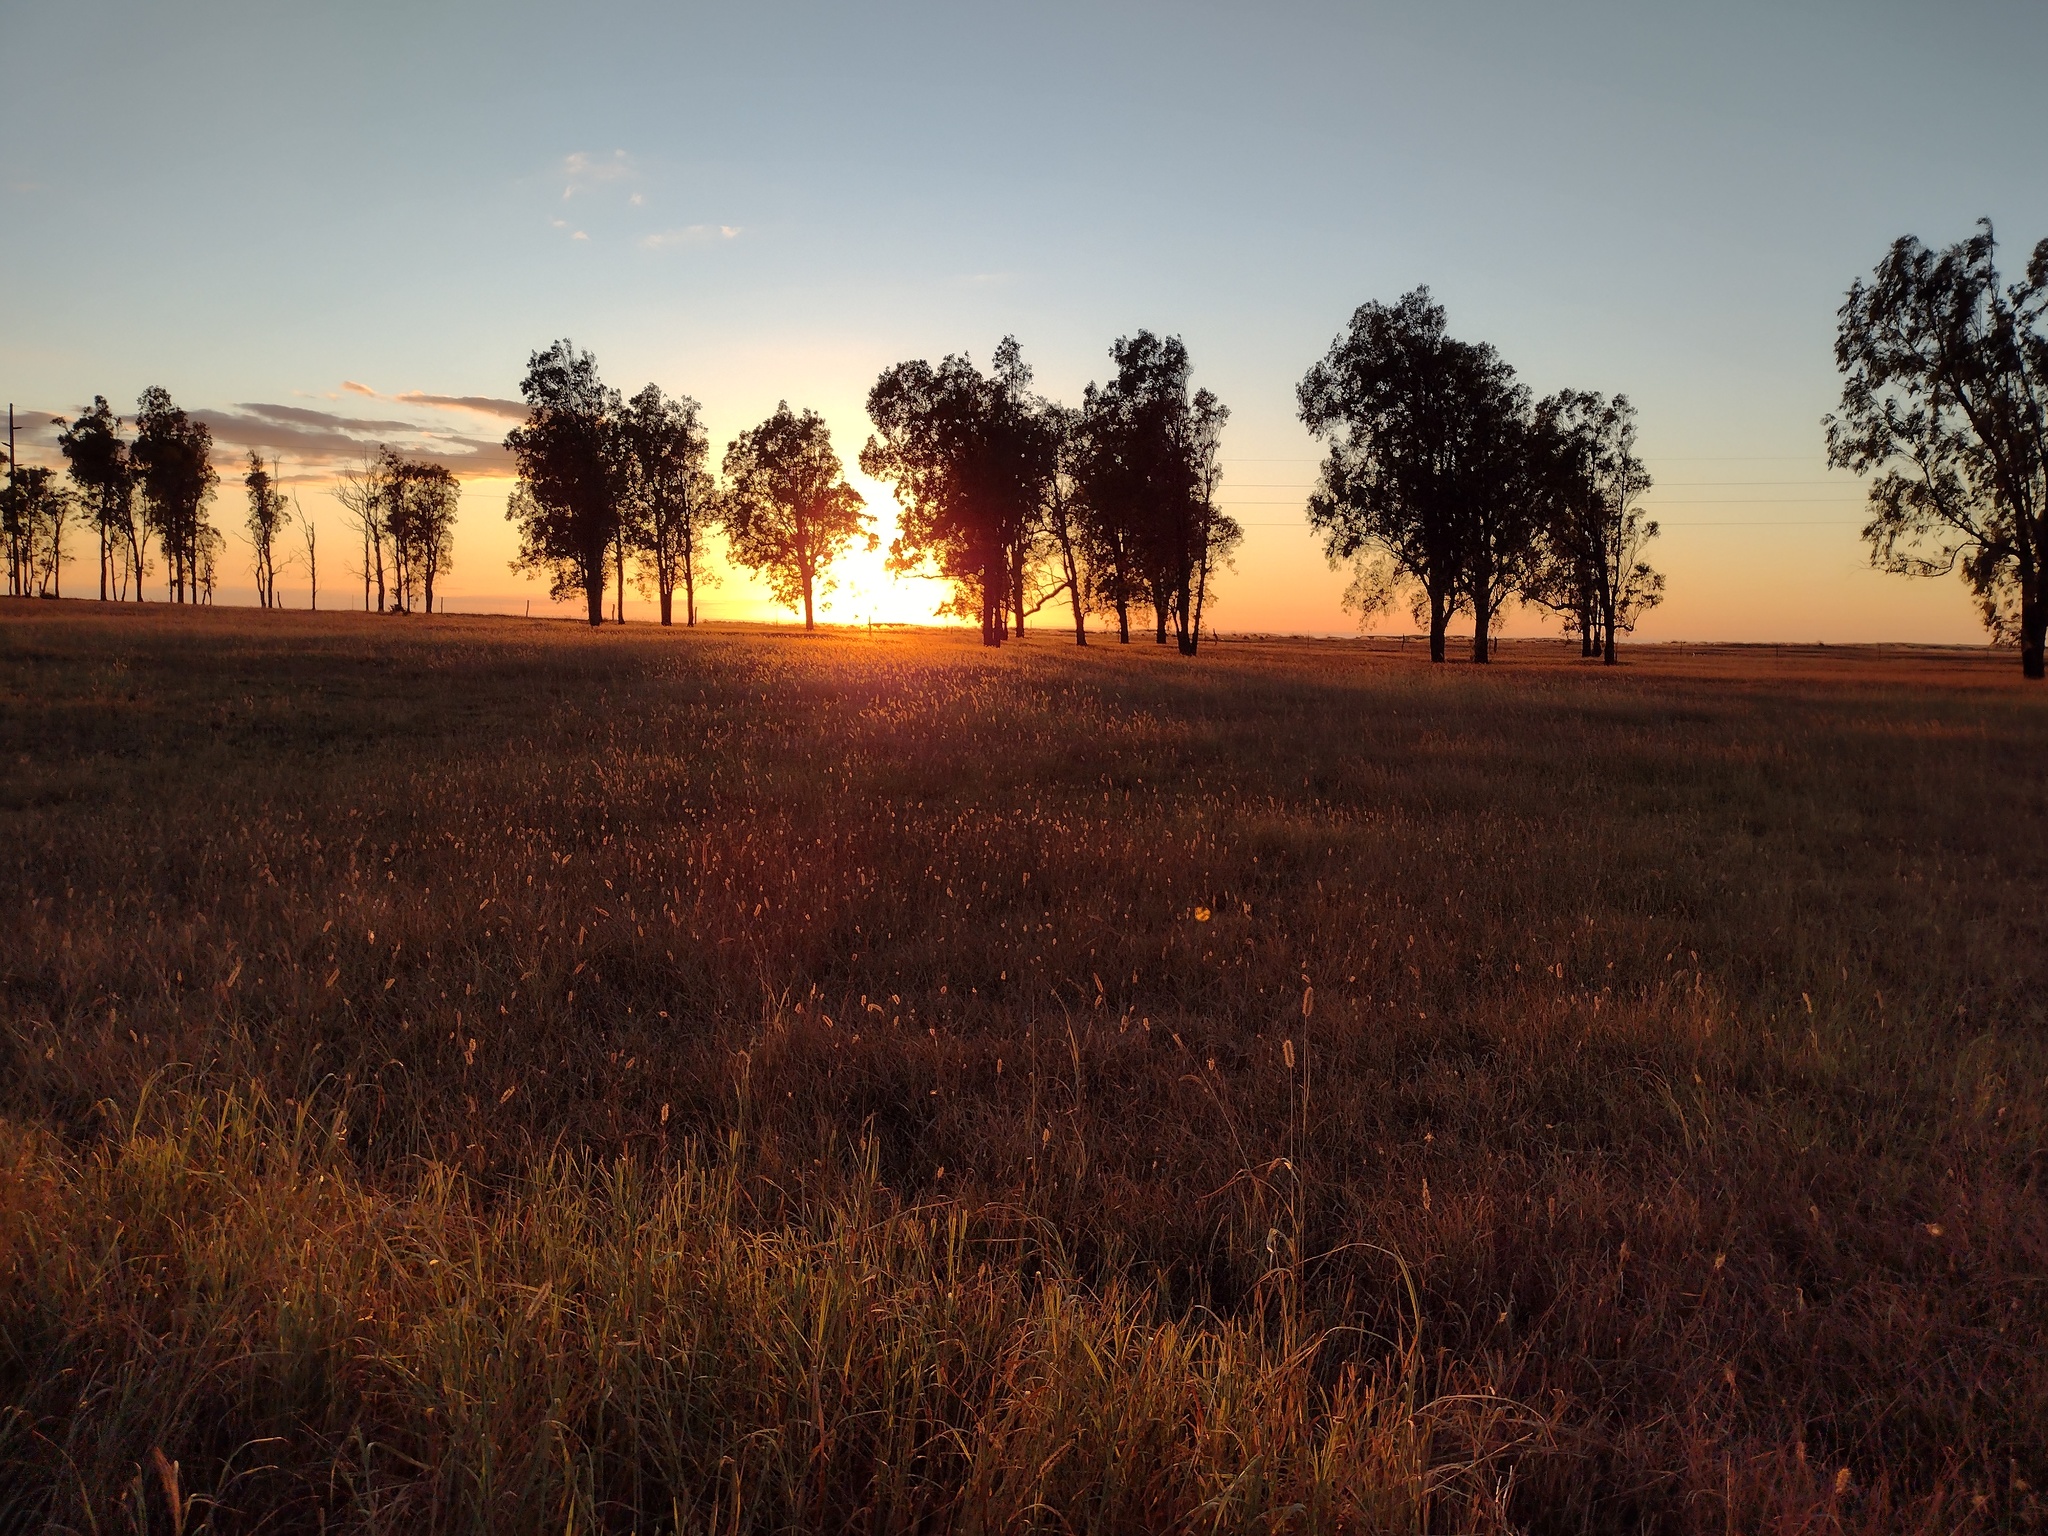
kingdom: Plantae
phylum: Tracheophyta
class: Liliopsida
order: Poales
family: Poaceae
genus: Cenchrus
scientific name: Cenchrus ciliaris
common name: Buffelgrass
